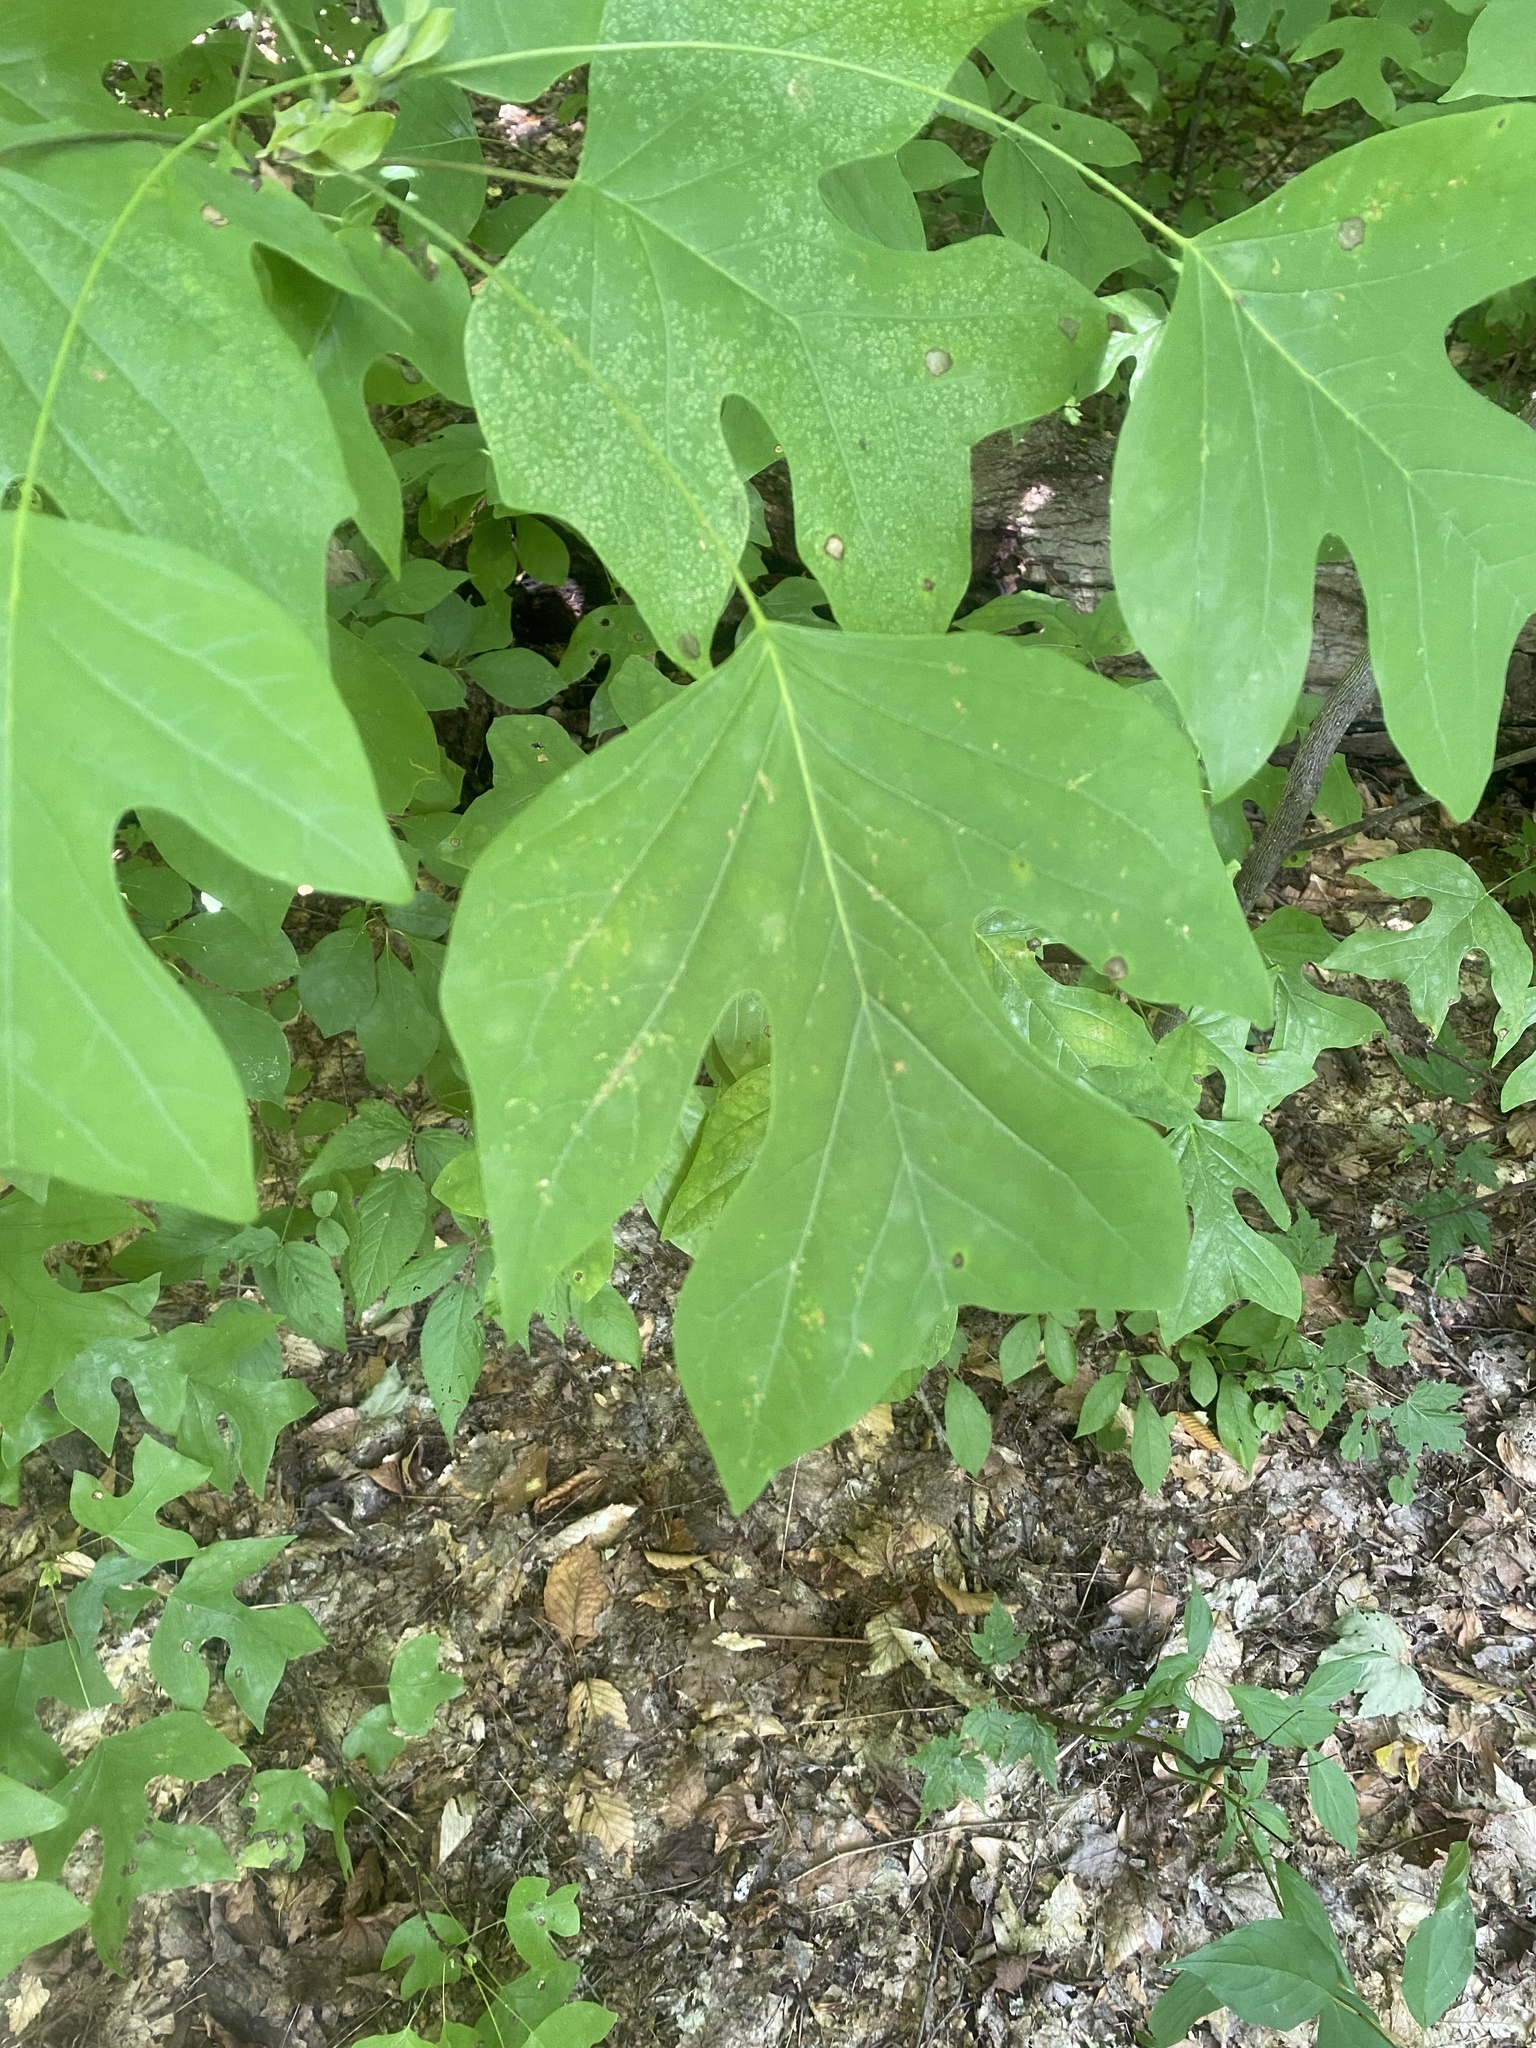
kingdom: Plantae
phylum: Tracheophyta
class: Magnoliopsida
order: Magnoliales
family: Magnoliaceae
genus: Liriodendron
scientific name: Liriodendron tulipifera
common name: Tulip tree
